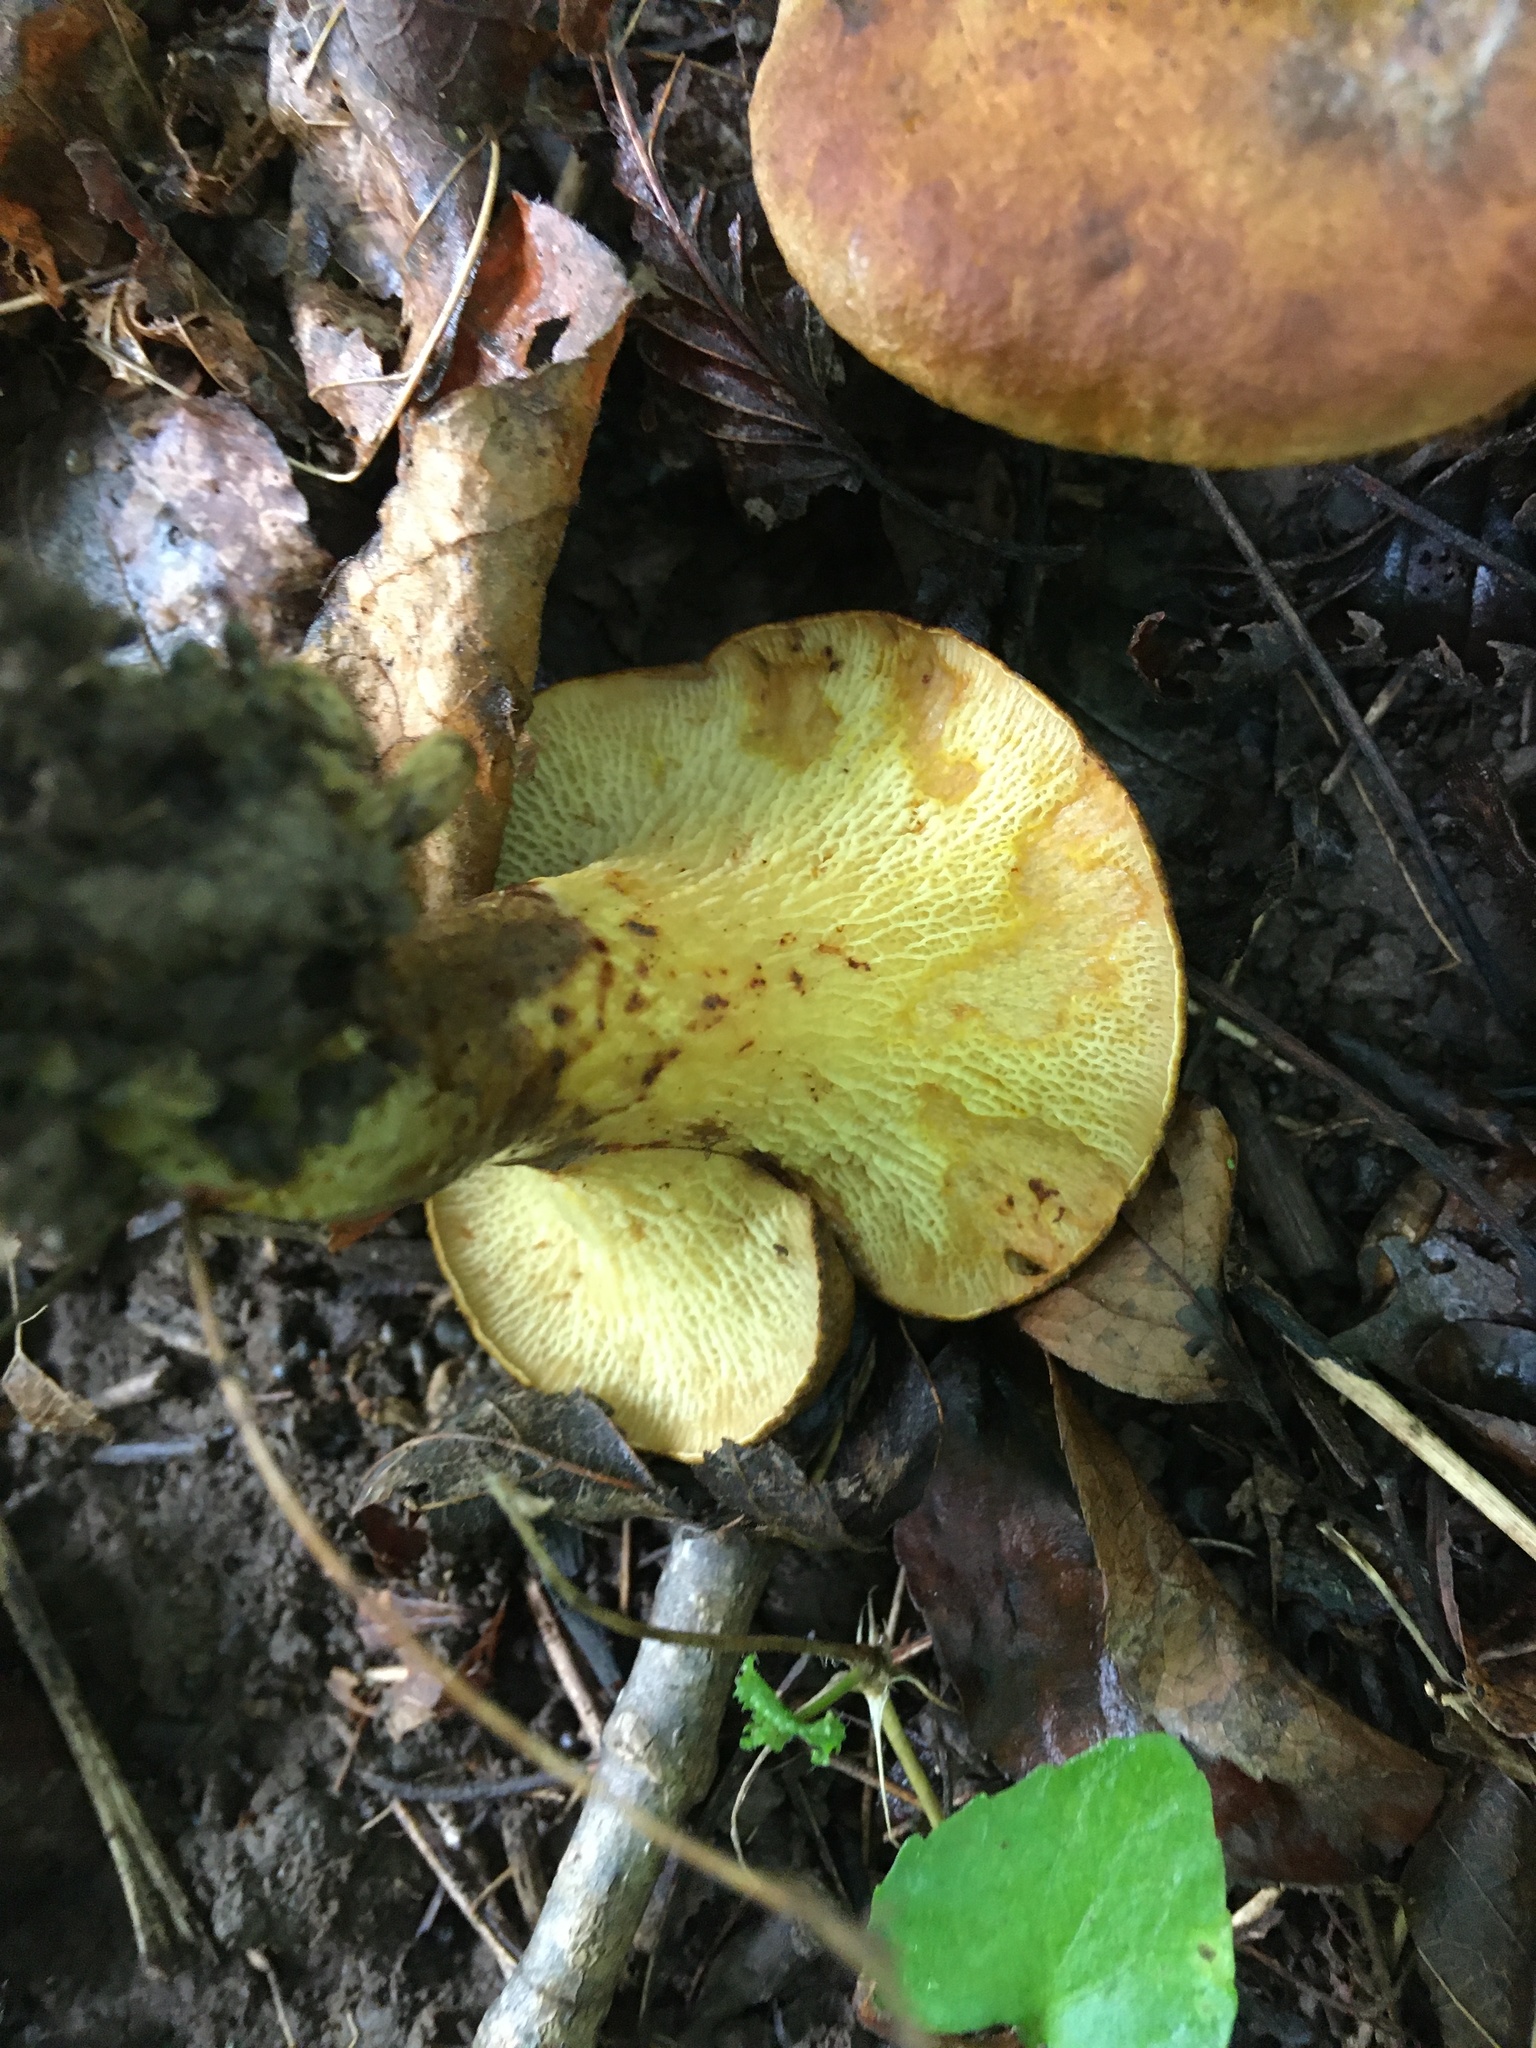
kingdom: Fungi
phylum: Basidiomycota
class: Agaricomycetes
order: Boletales
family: Boletinellaceae
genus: Boletinellus
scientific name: Boletinellus merulioides
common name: Ash tree bolete
